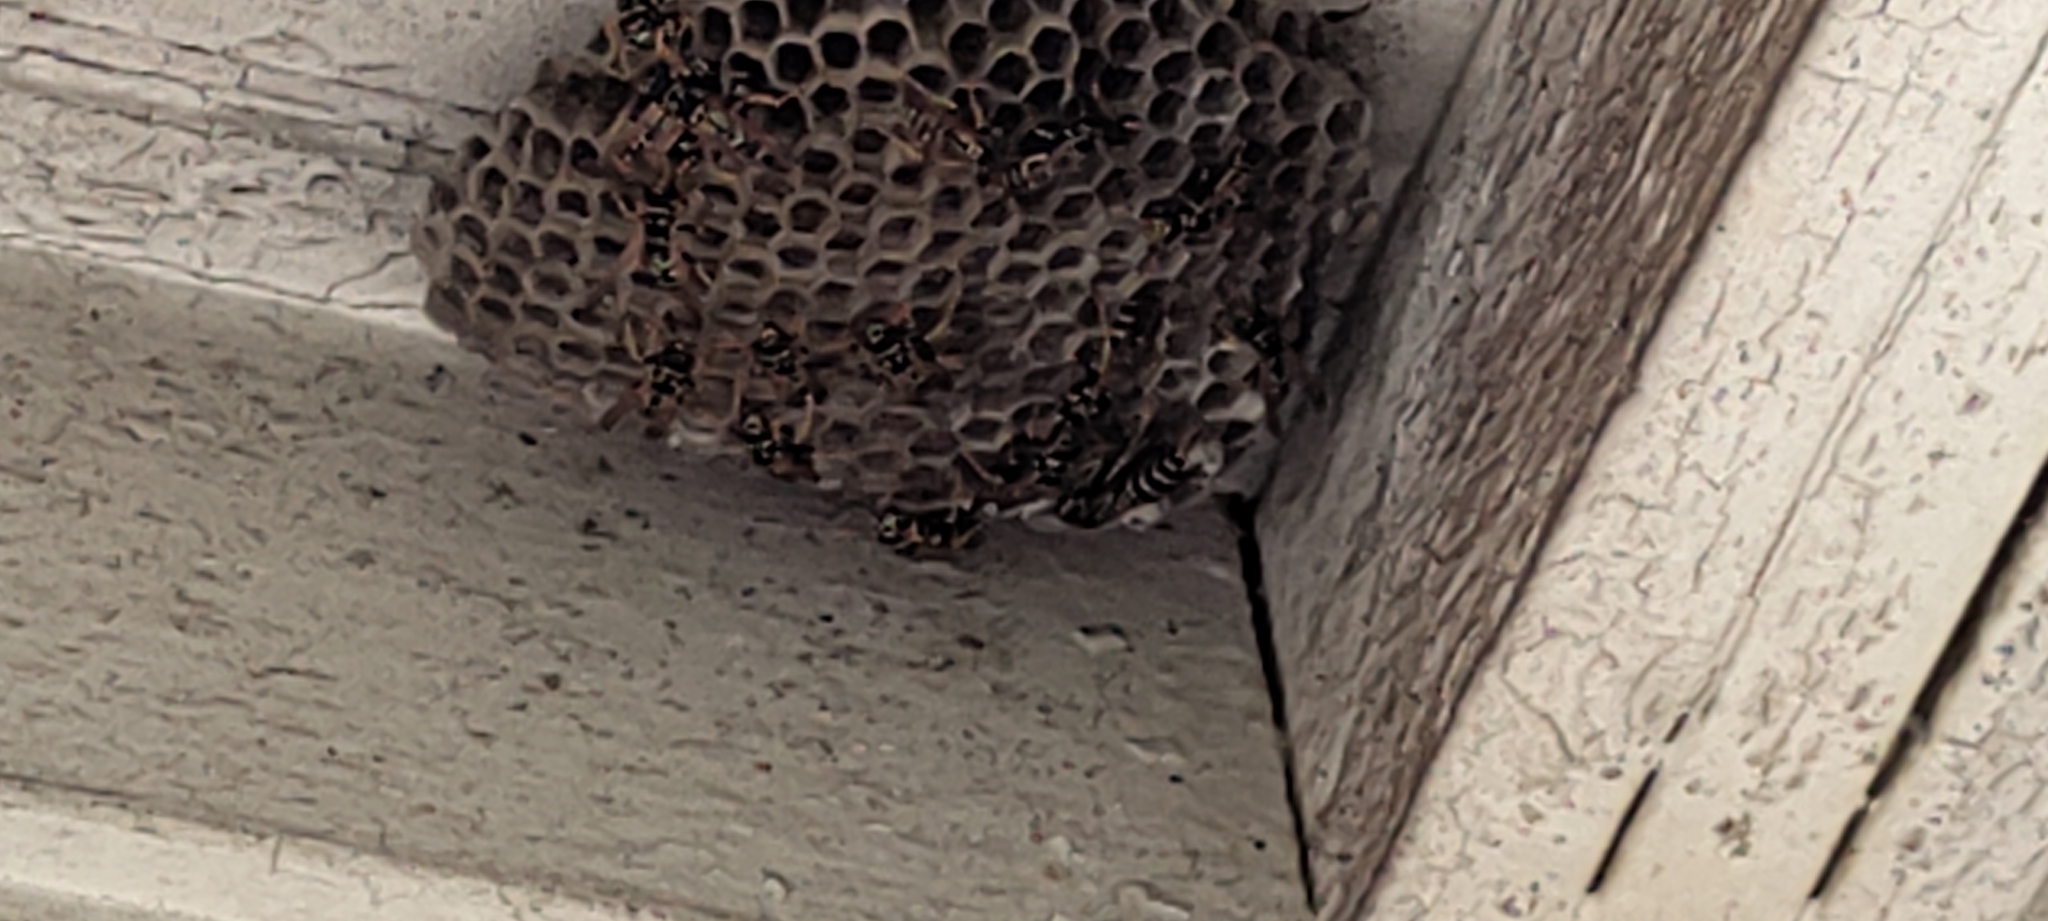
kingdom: Animalia
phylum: Arthropoda
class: Insecta
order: Hymenoptera
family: Eumenidae
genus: Polistes
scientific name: Polistes dominula
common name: Paper wasp
